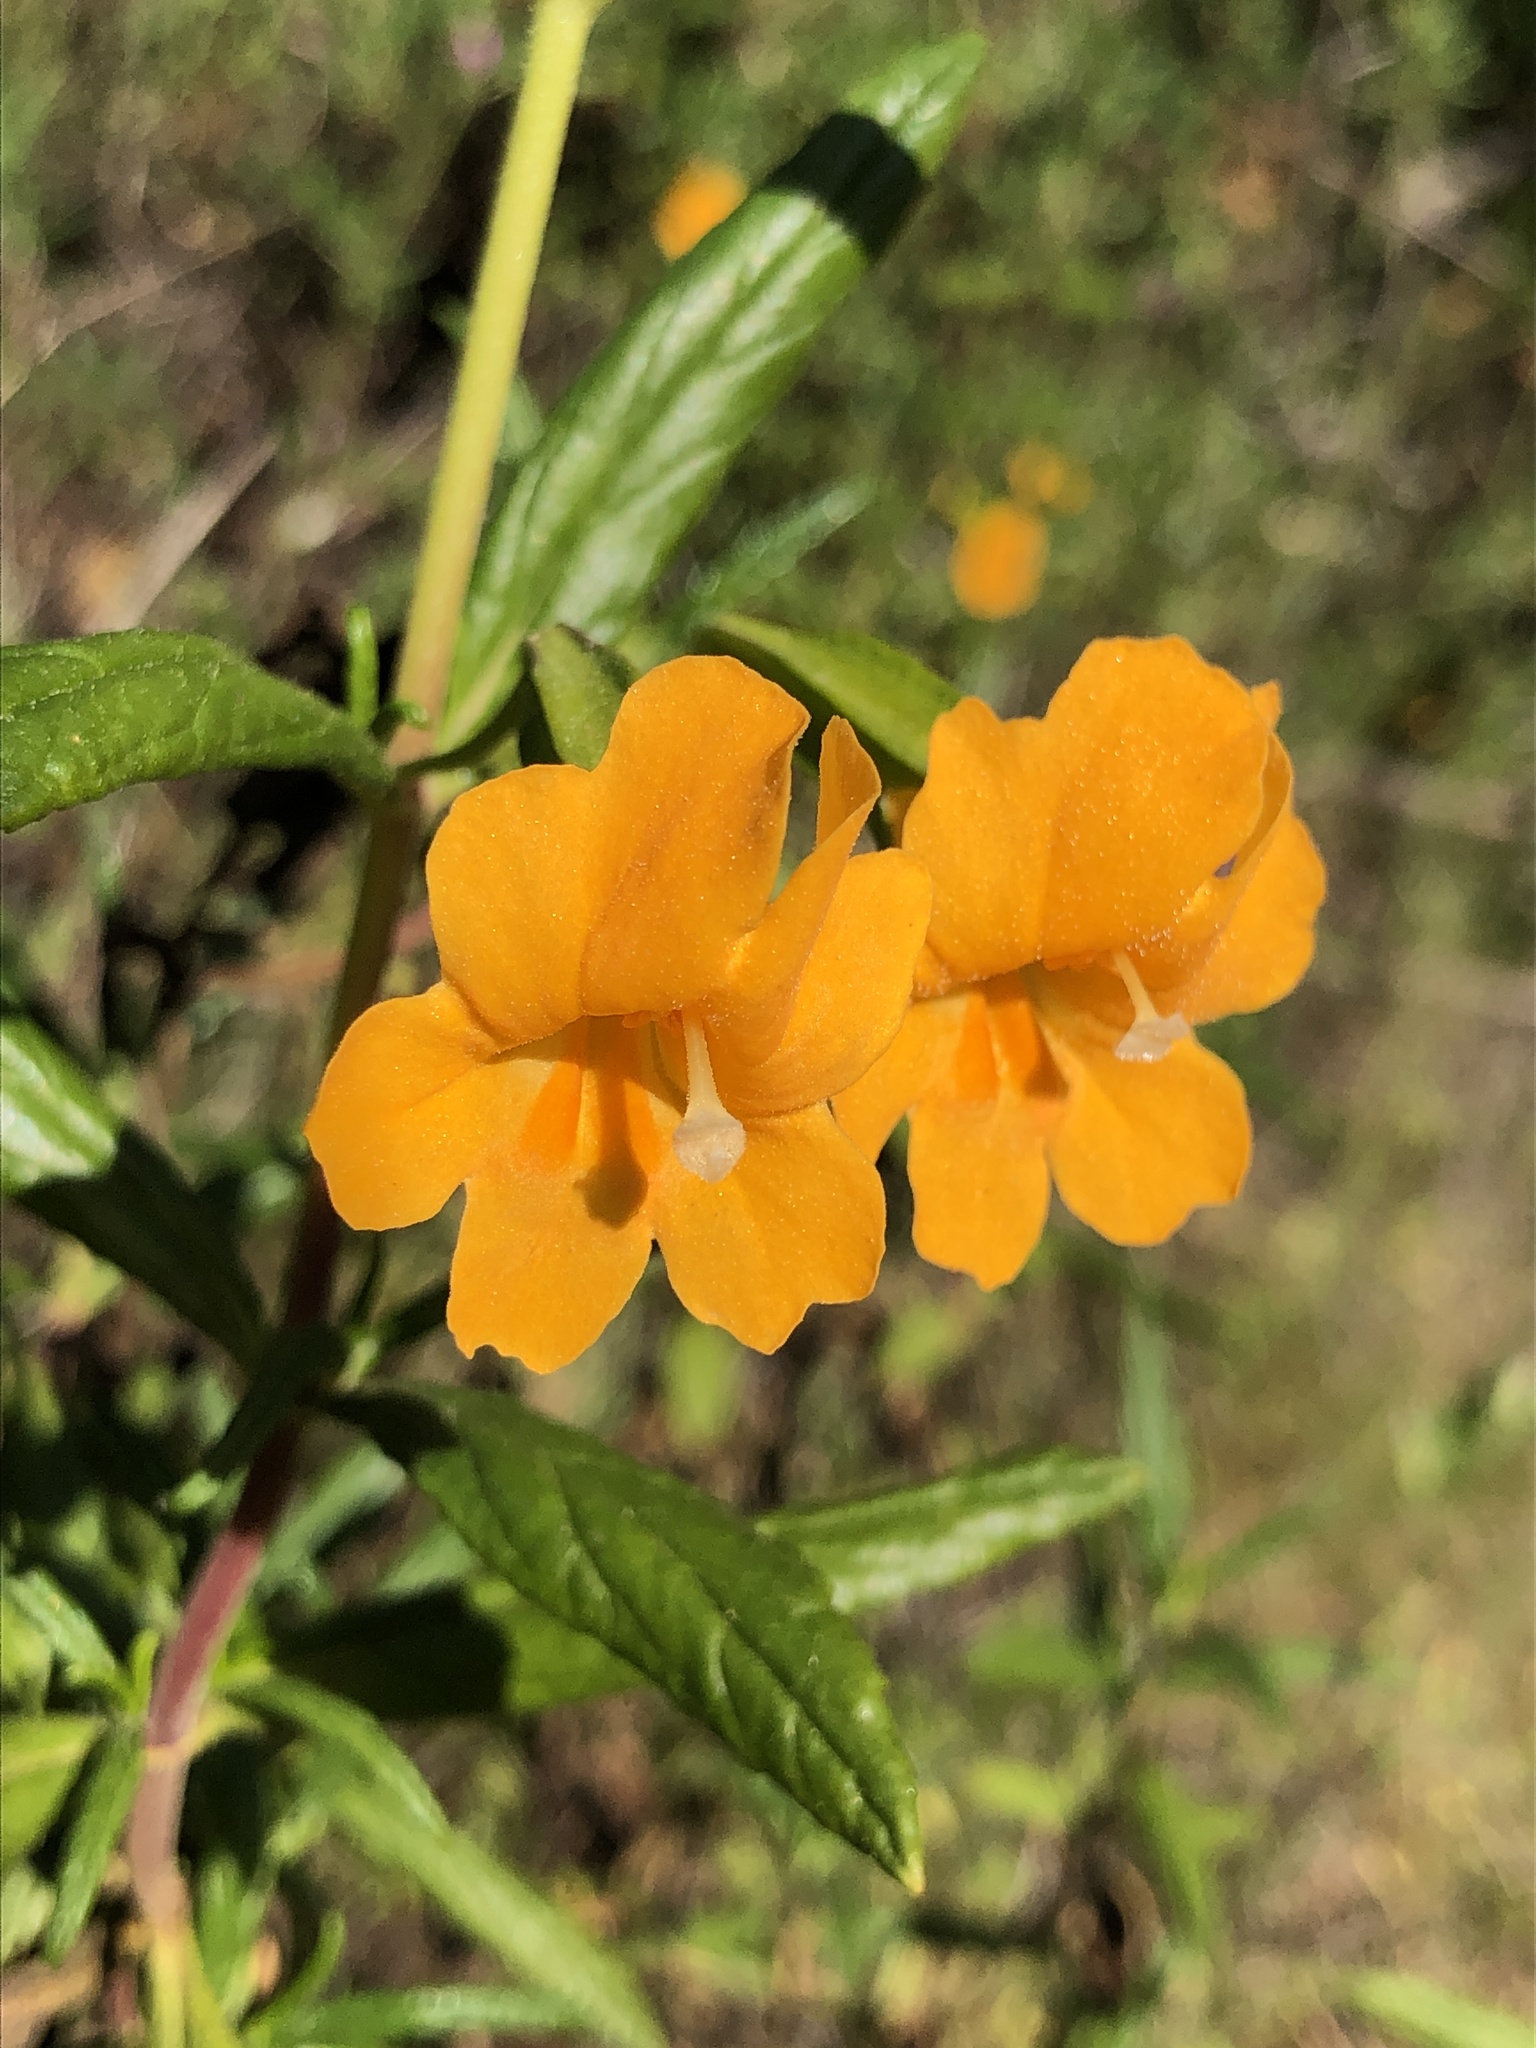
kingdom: Plantae
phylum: Tracheophyta
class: Magnoliopsida
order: Lamiales
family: Phrymaceae
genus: Diplacus
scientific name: Diplacus aurantiacus
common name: Bush monkey-flower
